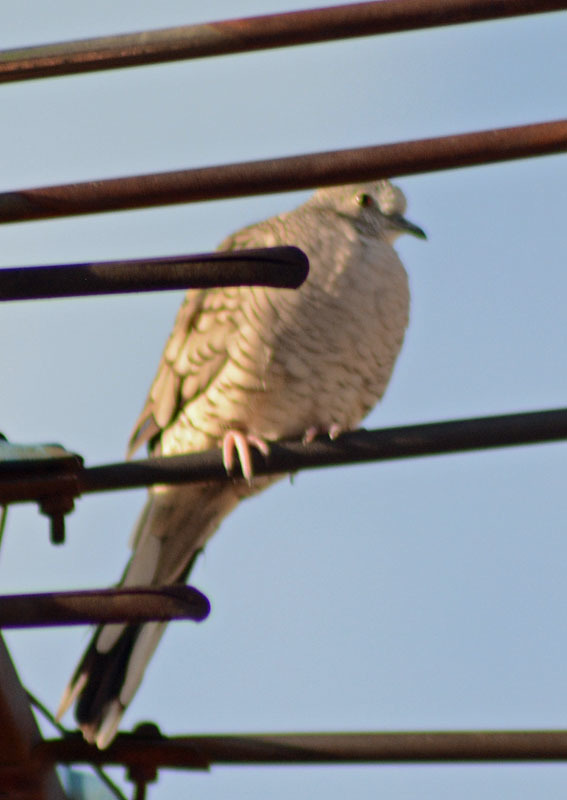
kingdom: Animalia
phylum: Chordata
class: Aves
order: Columbiformes
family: Columbidae
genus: Columbina
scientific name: Columbina inca
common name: Inca dove
